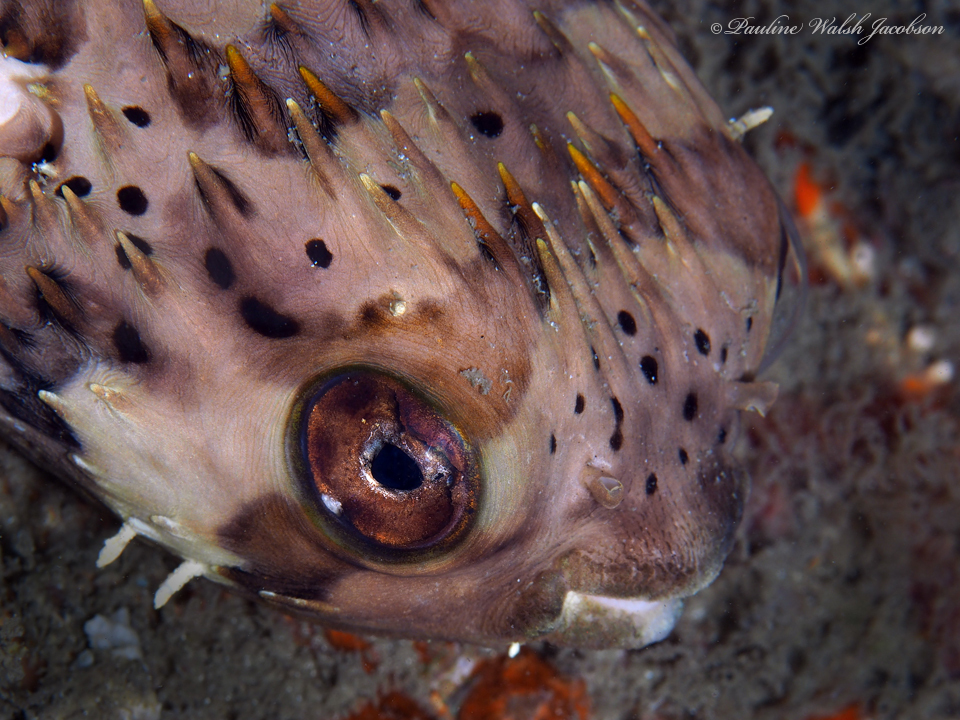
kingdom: Animalia
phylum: Chordata
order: Tetraodontiformes
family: Diodontidae
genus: Diodon
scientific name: Diodon holocanthus
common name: Balloonfish
